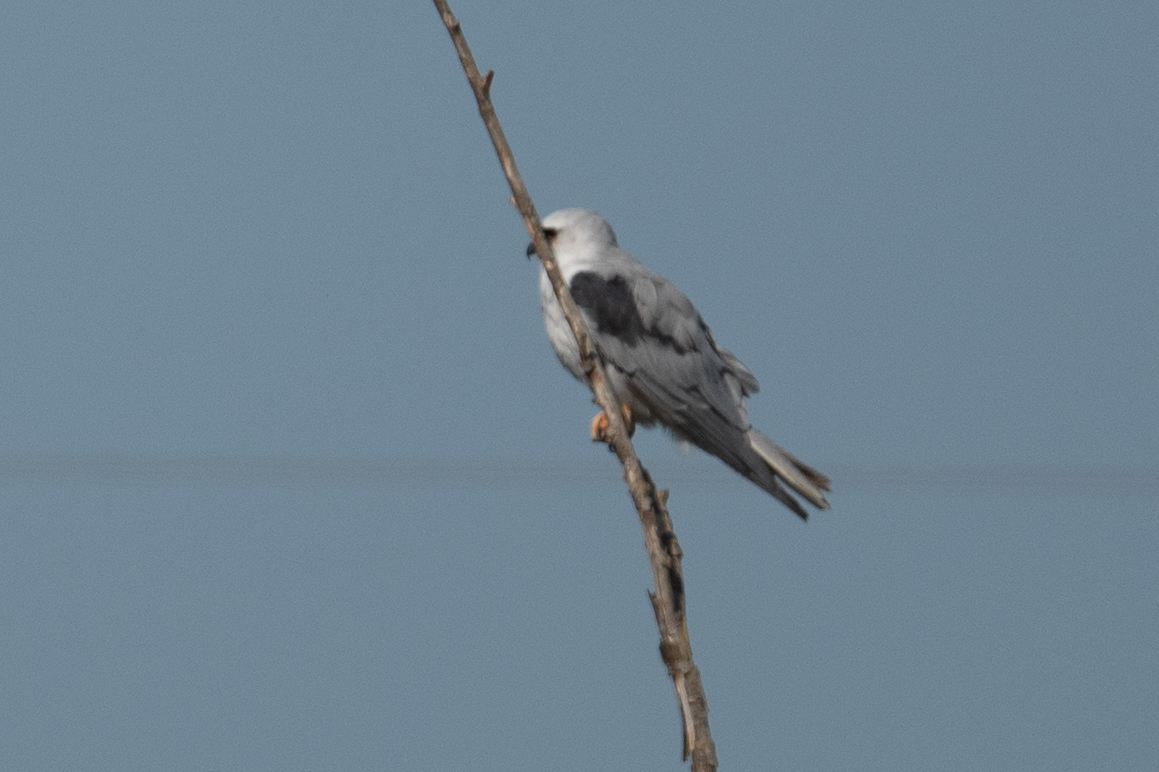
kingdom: Animalia
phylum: Chordata
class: Aves
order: Accipitriformes
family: Accipitridae
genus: Elanus
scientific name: Elanus leucurus
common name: White-tailed kite
